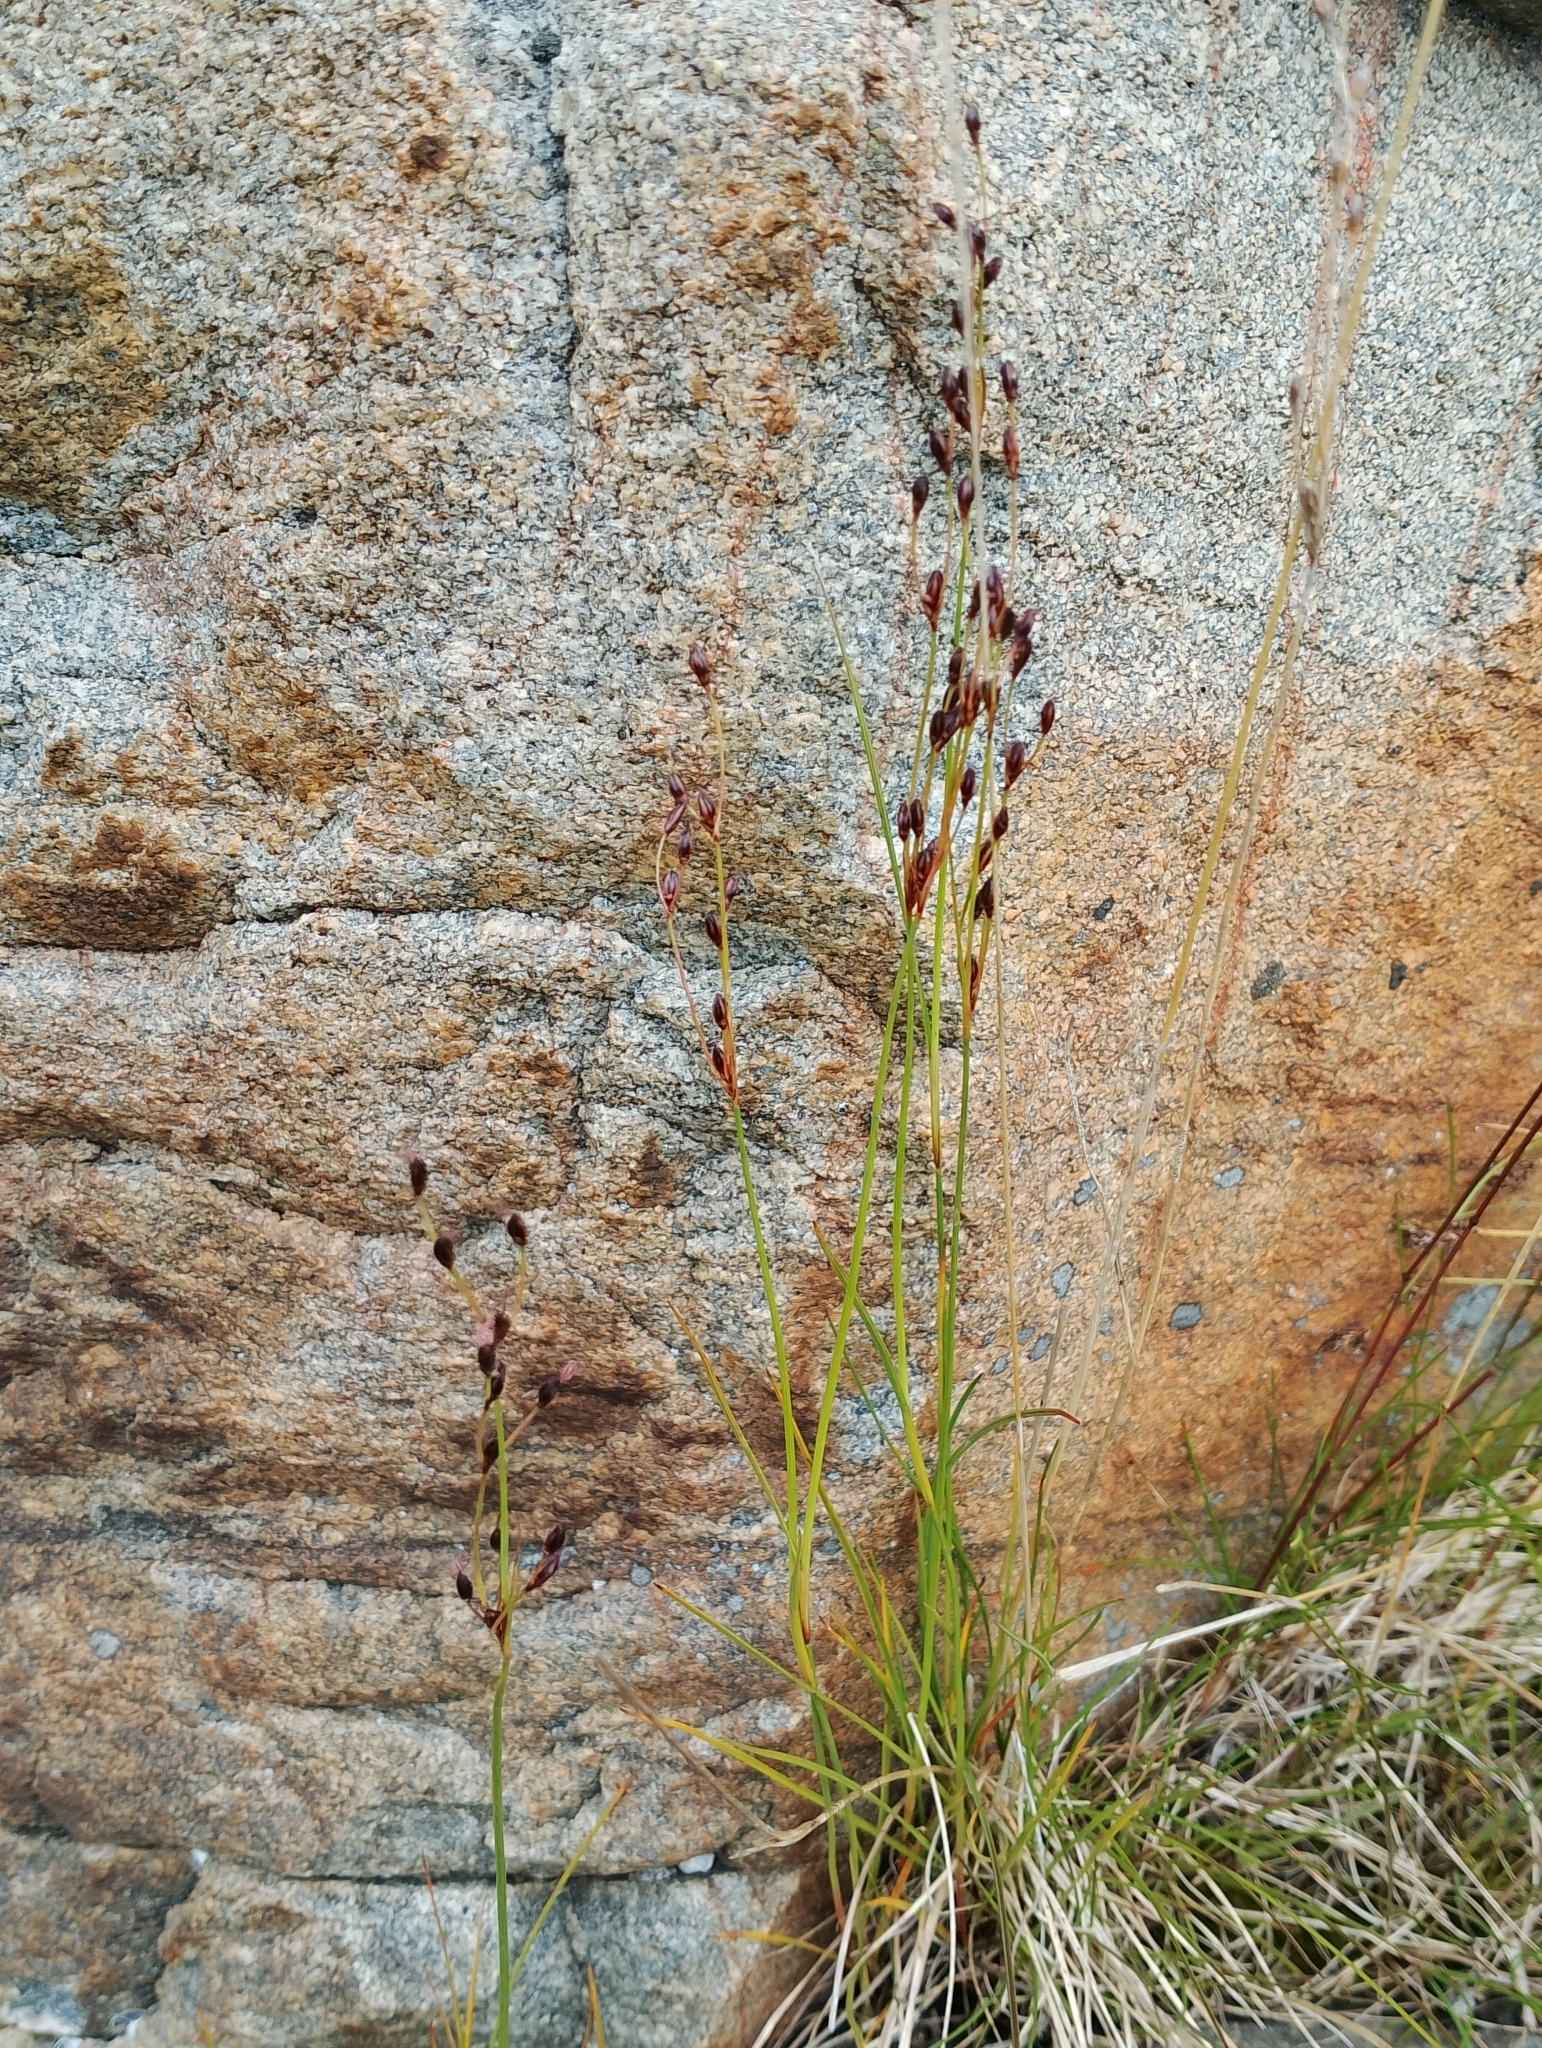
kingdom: Plantae
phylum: Tracheophyta
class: Liliopsida
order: Poales
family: Juncaceae
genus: Juncus
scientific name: Juncus gerardi
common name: Saltmarsh rush
